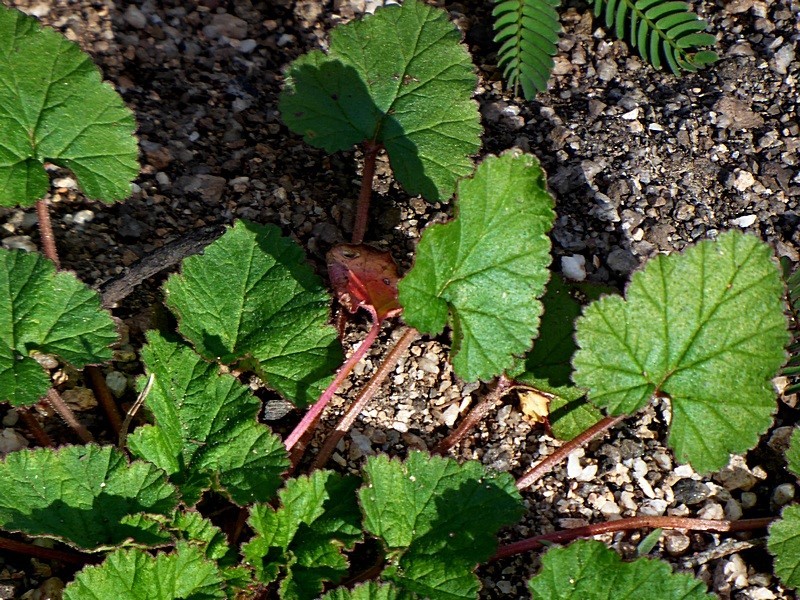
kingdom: Plantae
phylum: Tracheophyta
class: Magnoliopsida
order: Geraniales
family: Geraniaceae
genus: Pelargonium
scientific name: Pelargonium inodorum
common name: Kopata geranium
